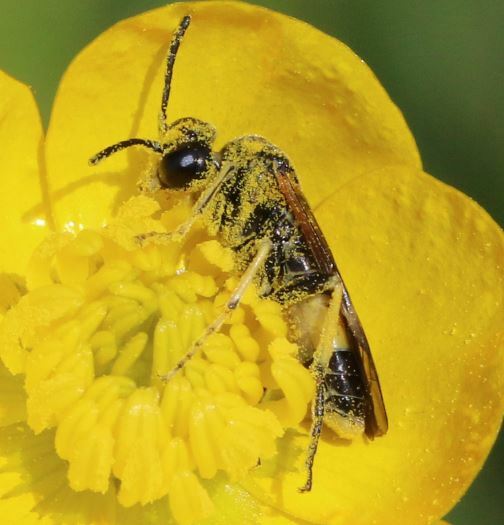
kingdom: Animalia
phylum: Arthropoda
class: Insecta
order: Hymenoptera
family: Tenthredinidae
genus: Paratenthredo
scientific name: Paratenthredo frauenfeldii
